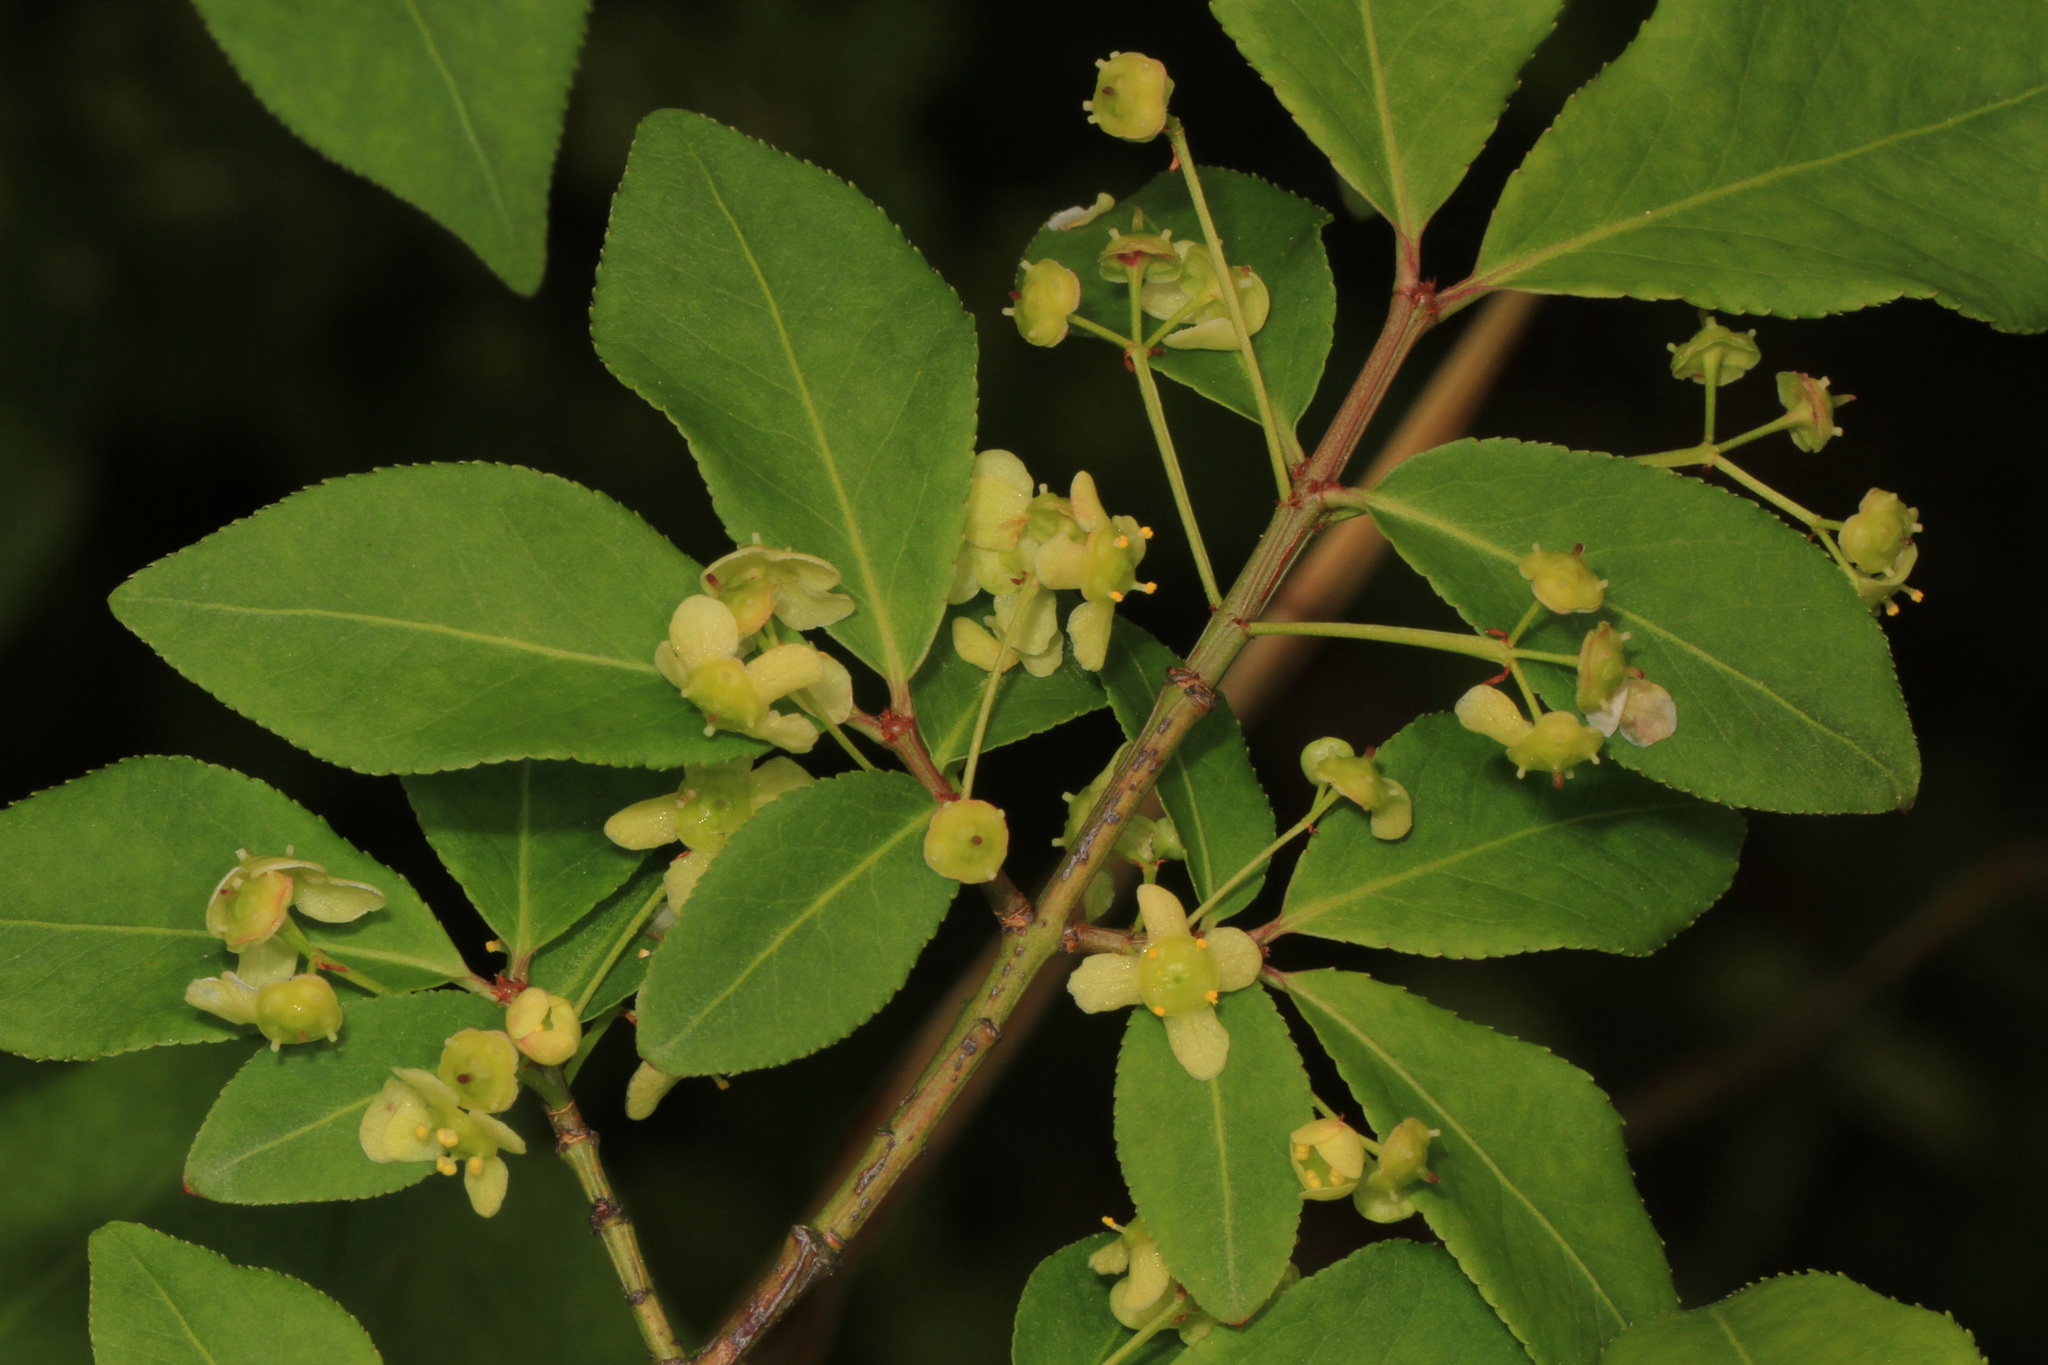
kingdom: Plantae
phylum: Tracheophyta
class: Magnoliopsida
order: Celastrales
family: Celastraceae
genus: Euonymus
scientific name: Euonymus alatus
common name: Winged euonymus
